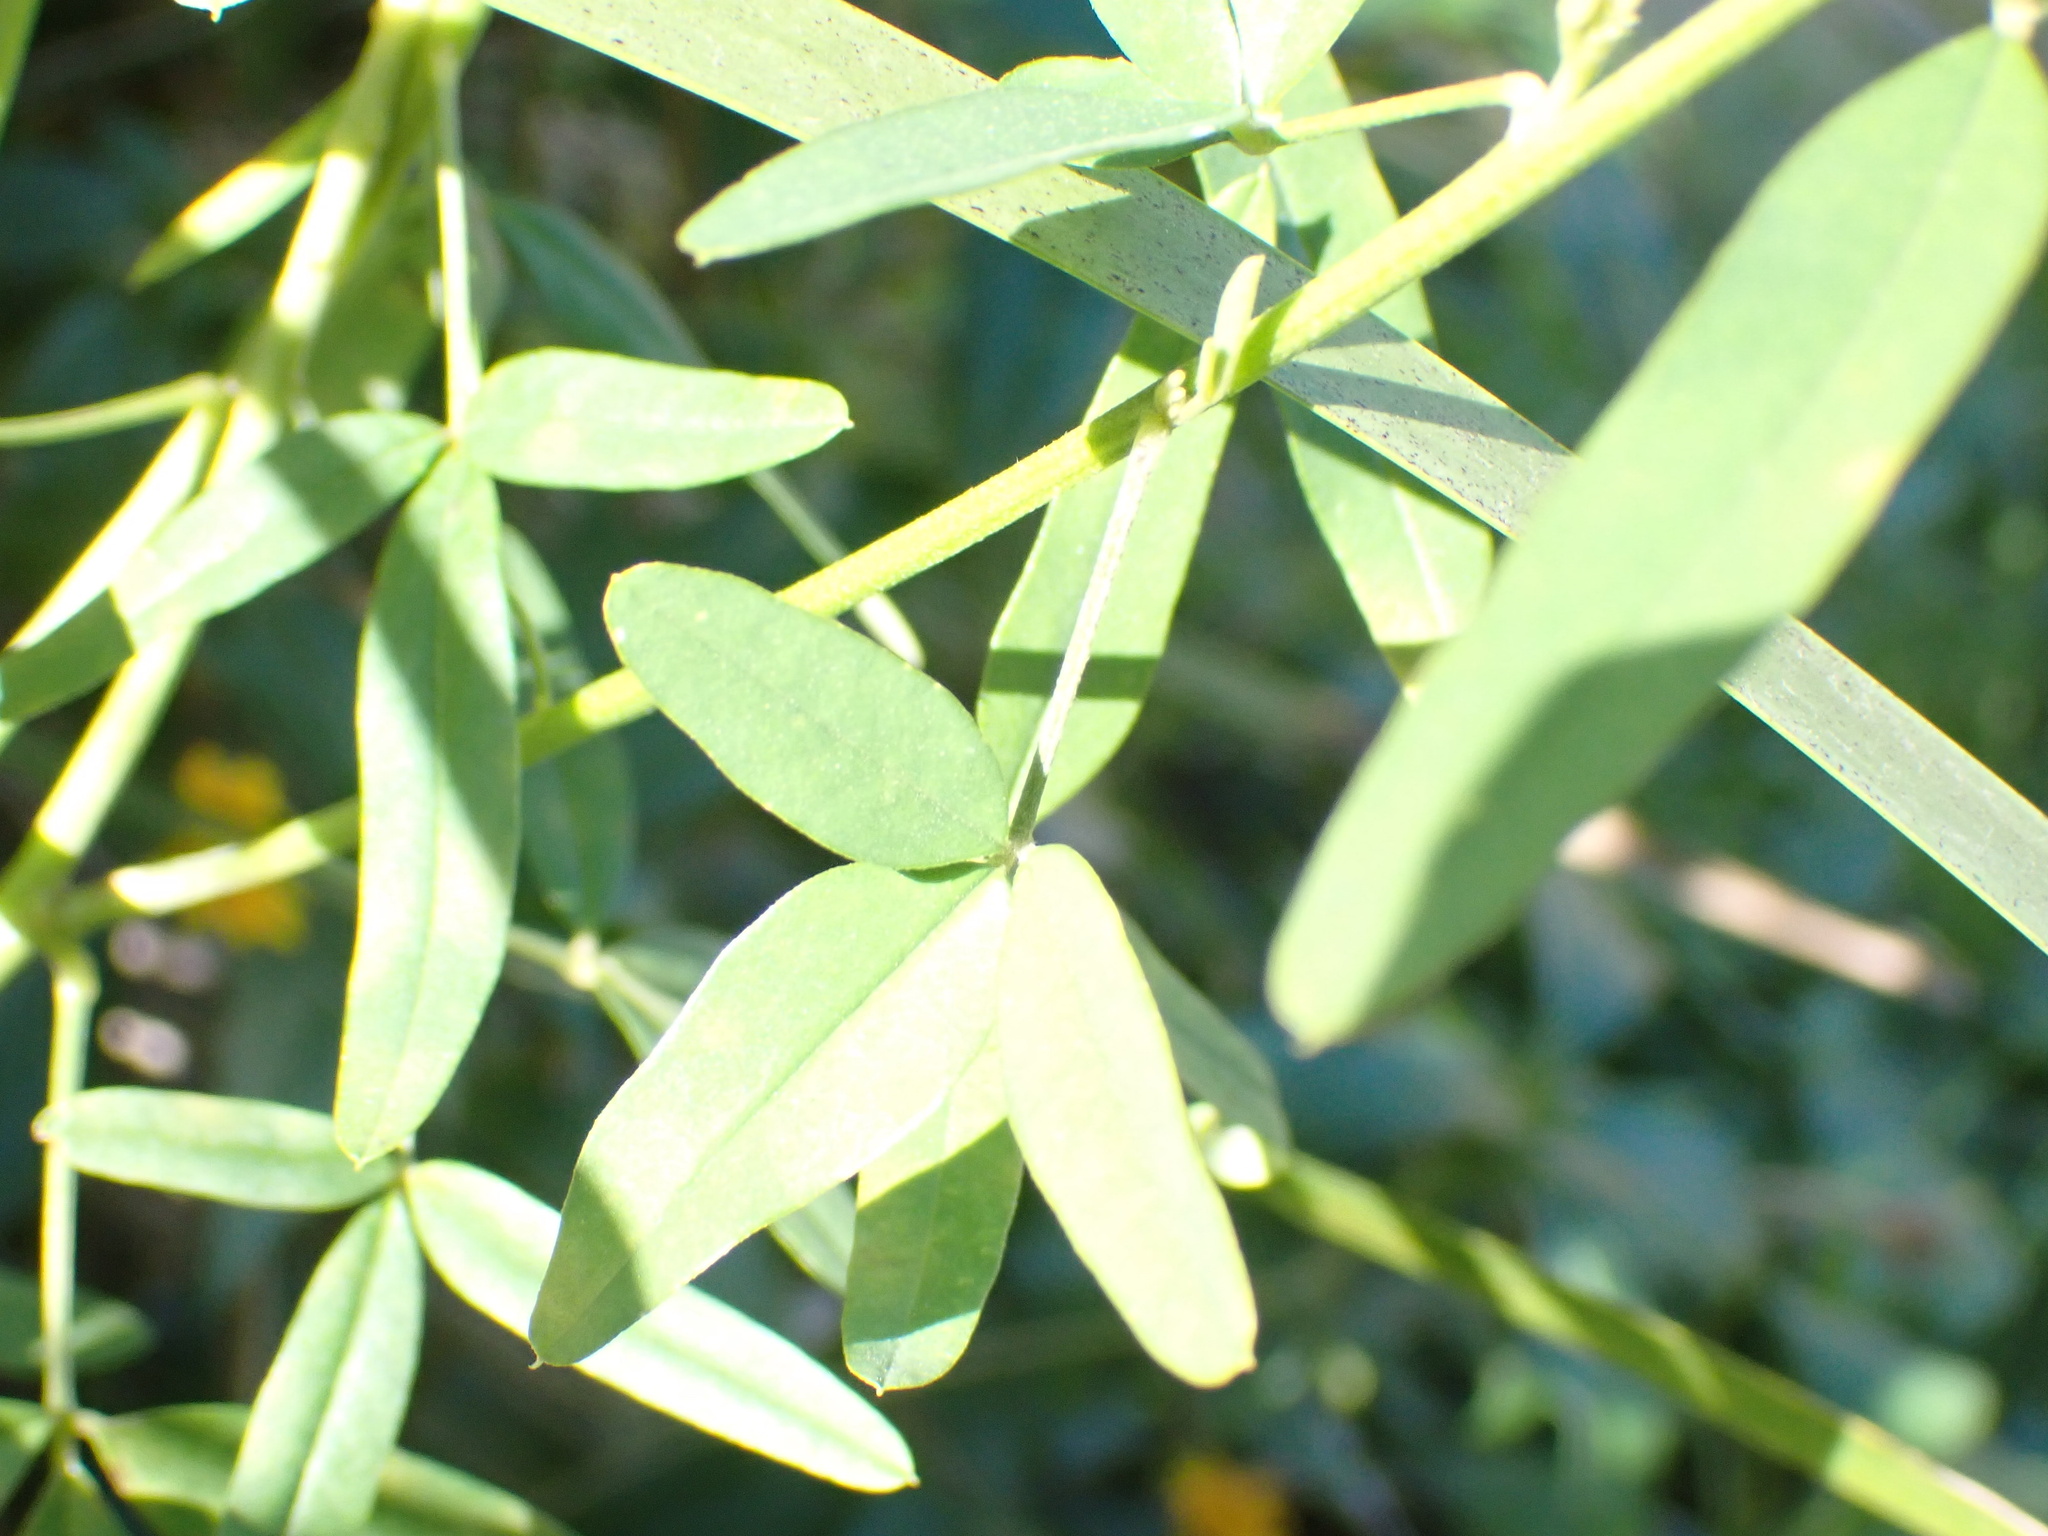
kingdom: Plantae
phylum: Tracheophyta
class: Magnoliopsida
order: Fabales
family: Fabaceae
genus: Crotalaria
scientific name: Crotalaria lanceolata
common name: Lanceleaf rattlebox
